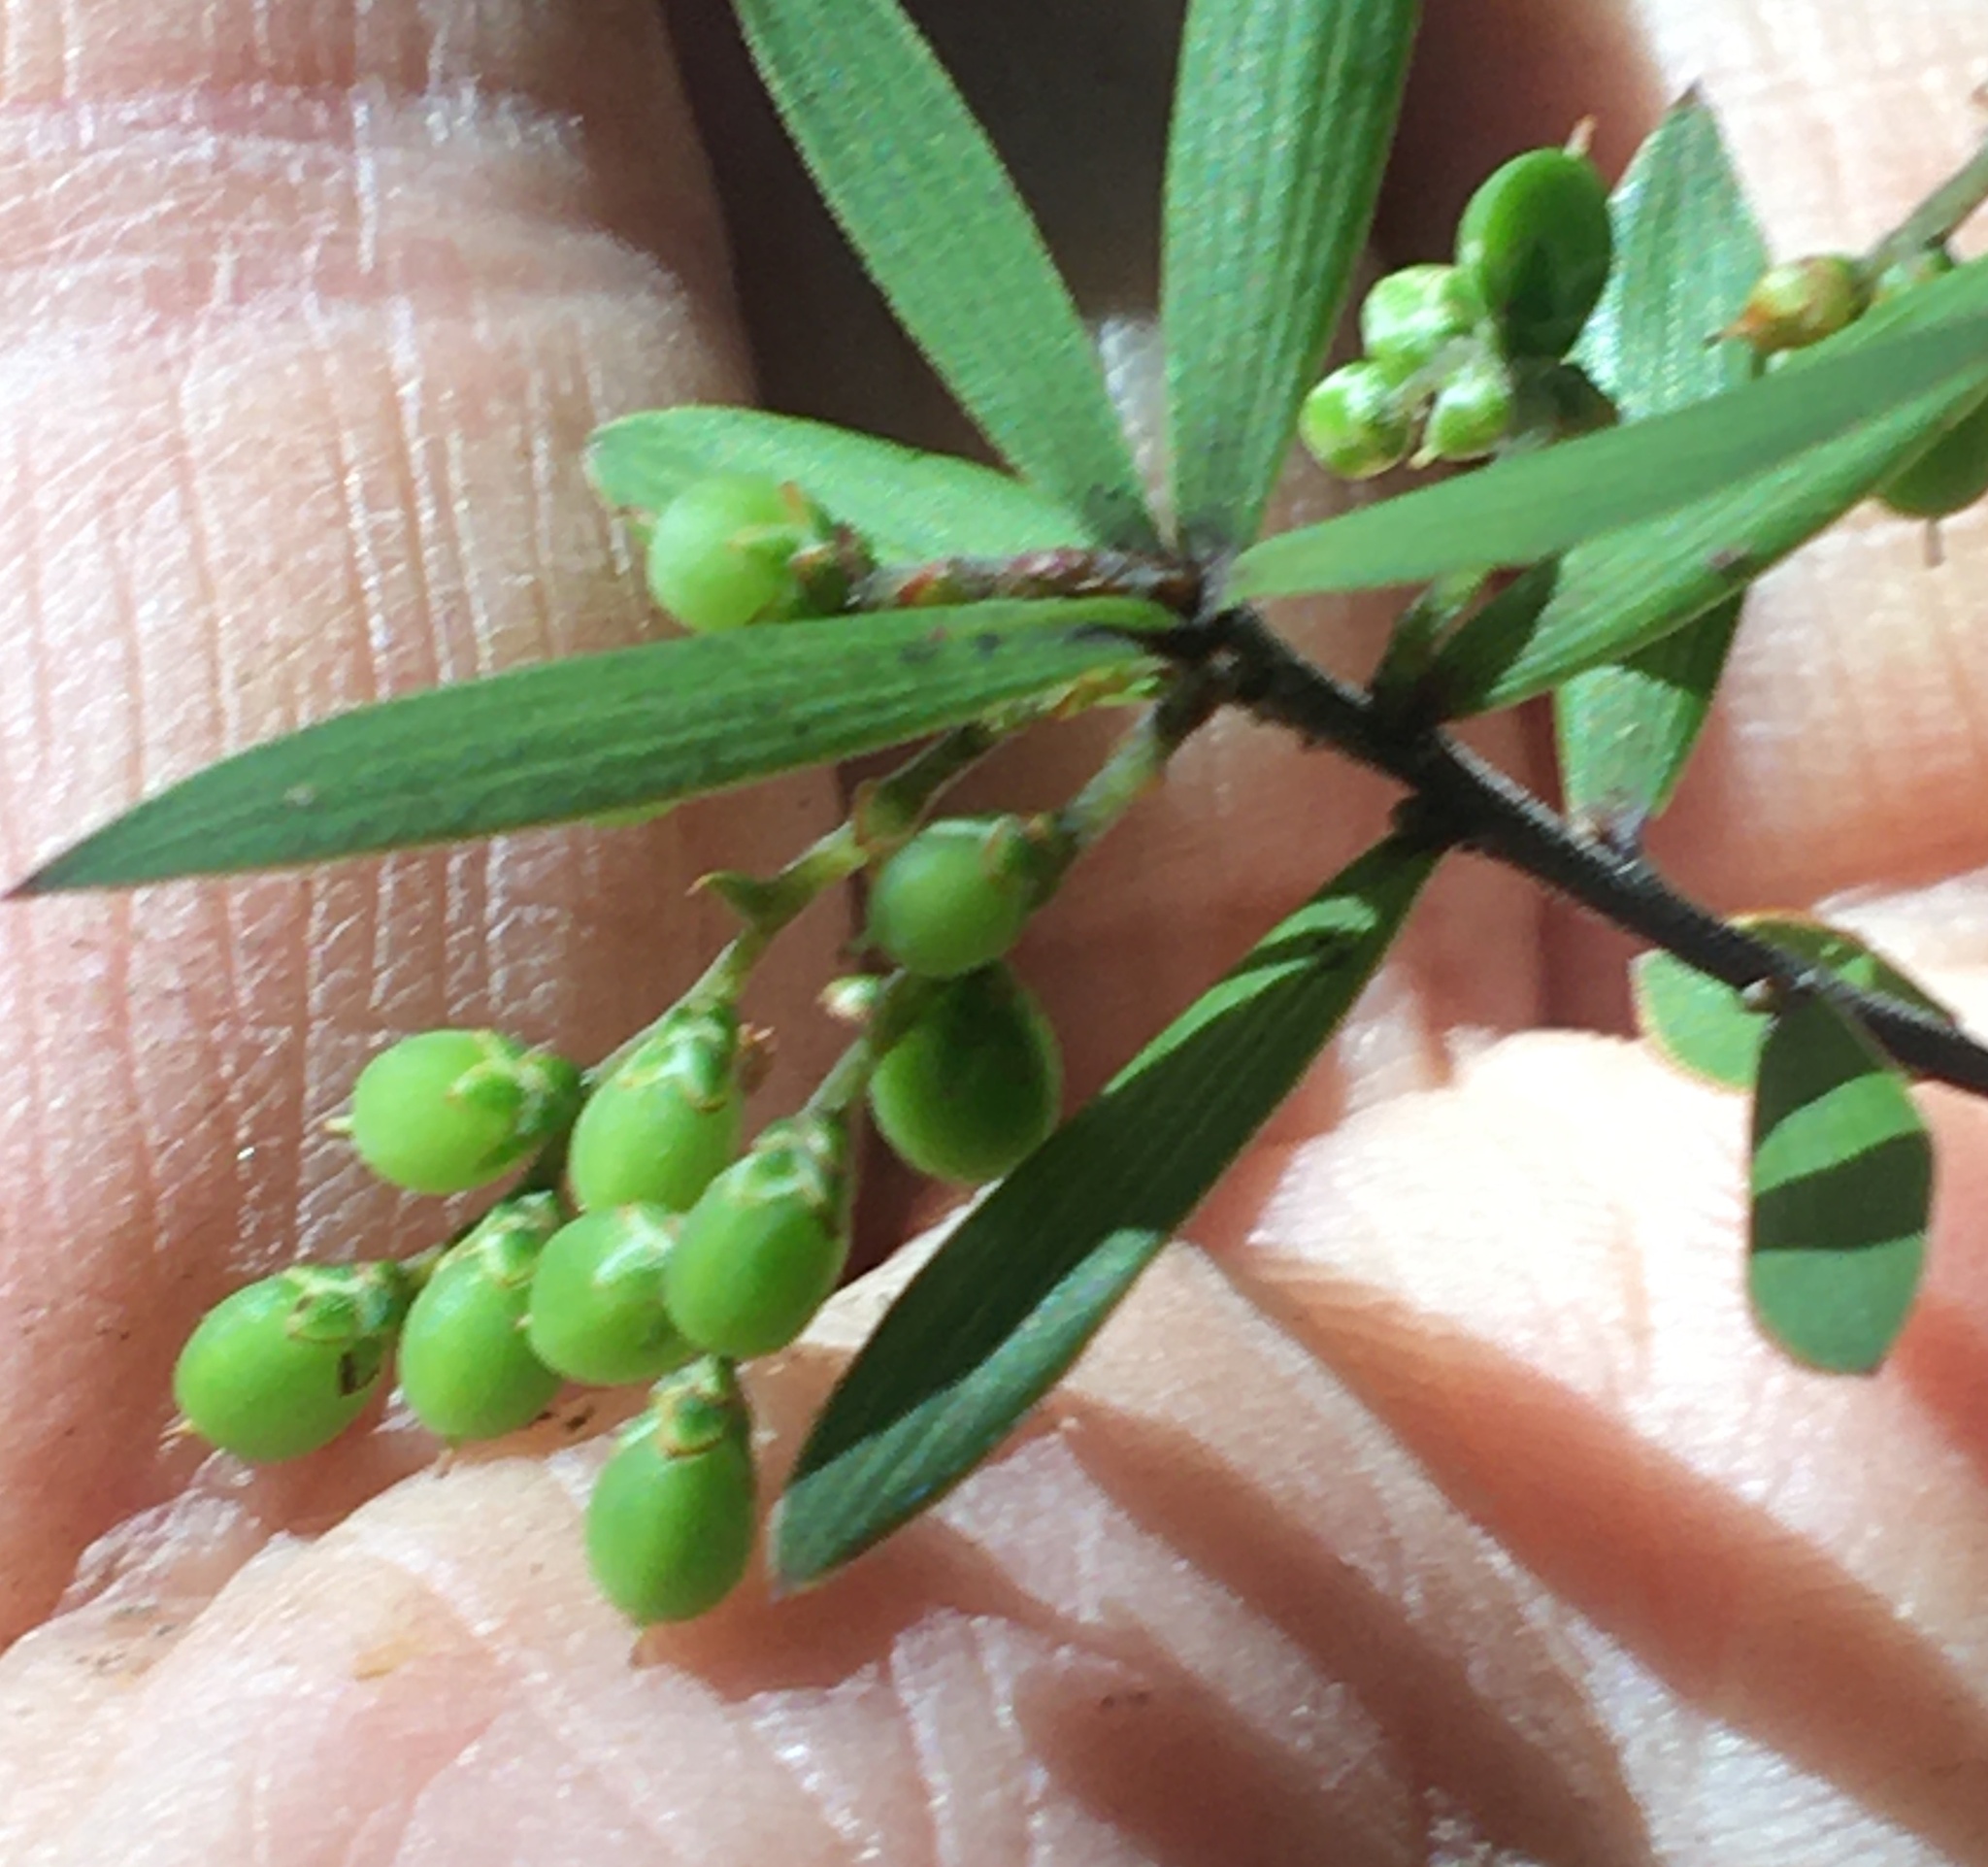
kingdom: Plantae
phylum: Tracheophyta
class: Magnoliopsida
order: Ericales
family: Ericaceae
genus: Leucopogon
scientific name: Leucopogon fasciculatus
